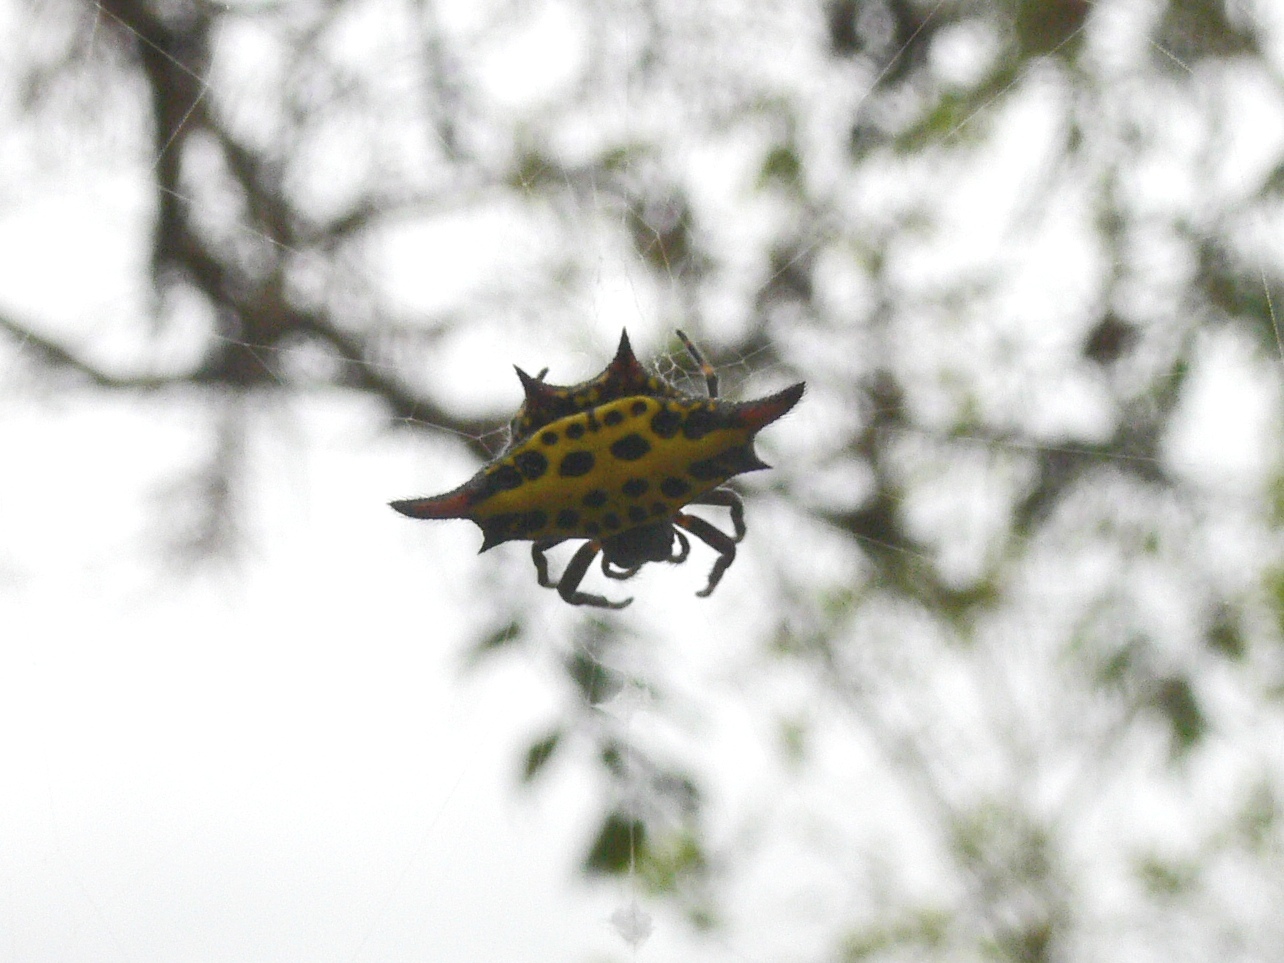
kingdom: Animalia
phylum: Arthropoda
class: Arachnida
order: Araneae
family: Araneidae
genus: Gasteracantha
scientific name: Gasteracantha sanguinolenta
